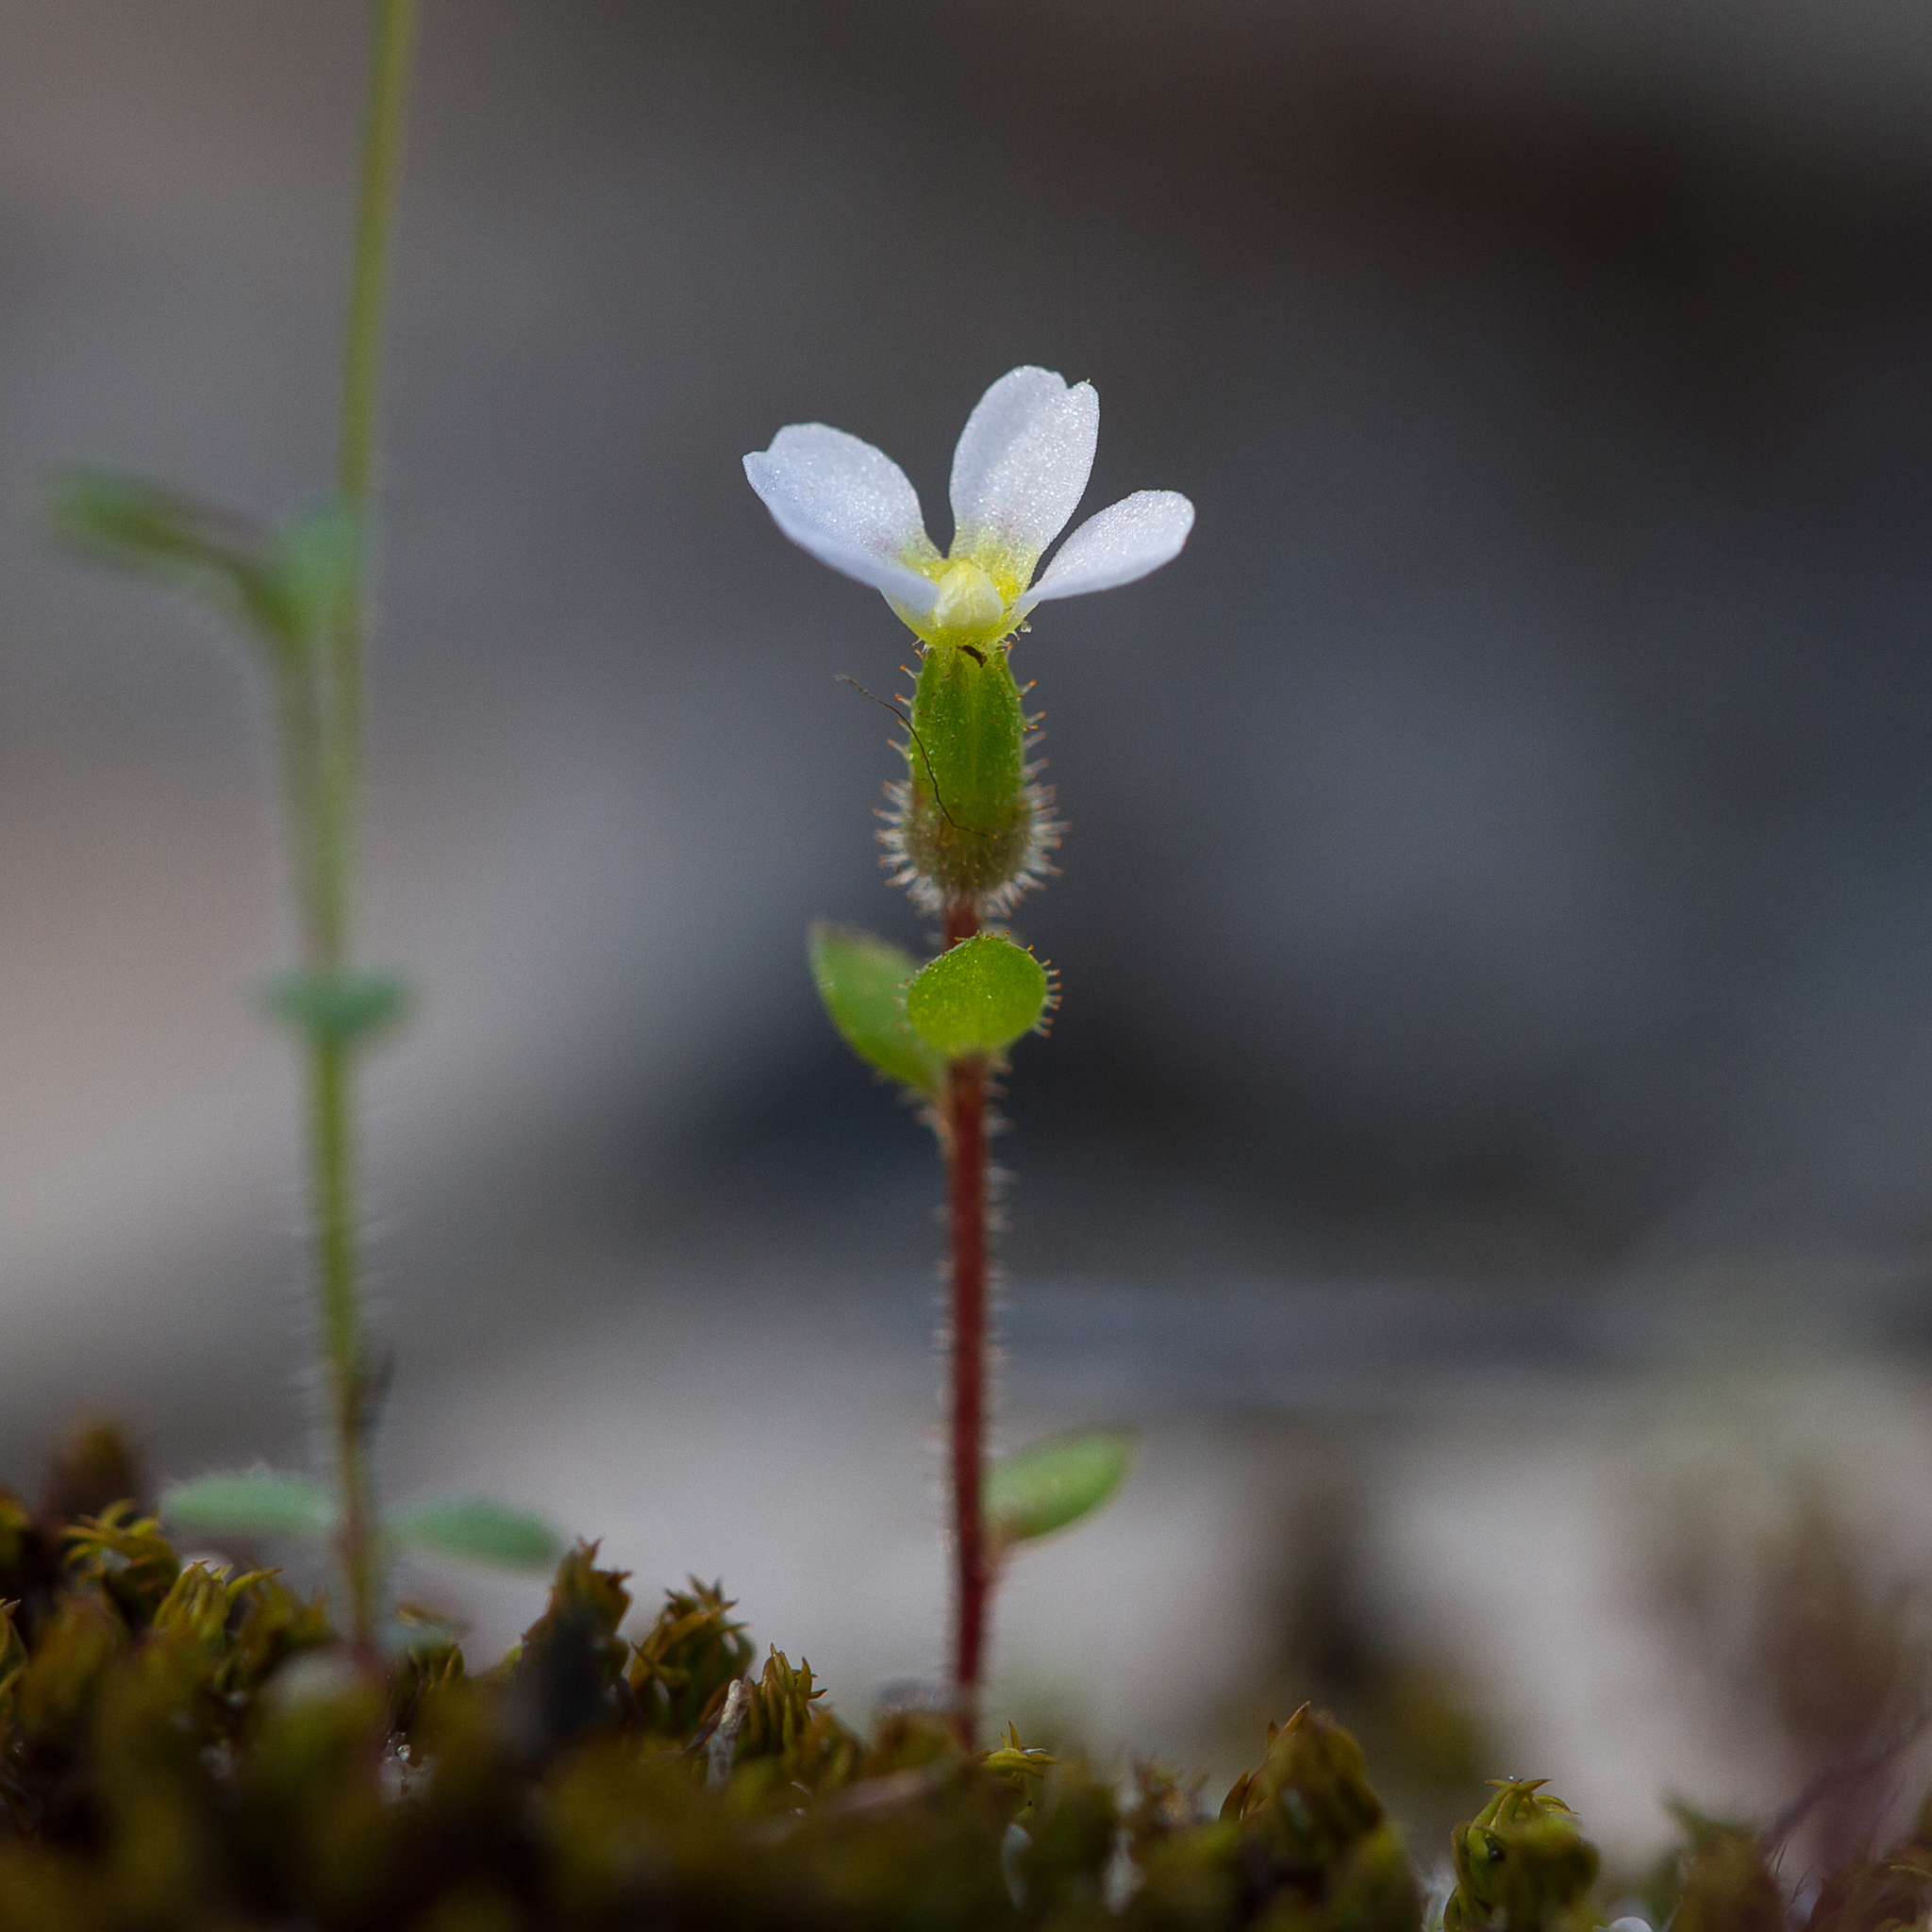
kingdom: Plantae
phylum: Tracheophyta
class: Magnoliopsida
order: Asterales
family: Stylidiaceae
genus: Levenhookia
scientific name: Levenhookia dubia
